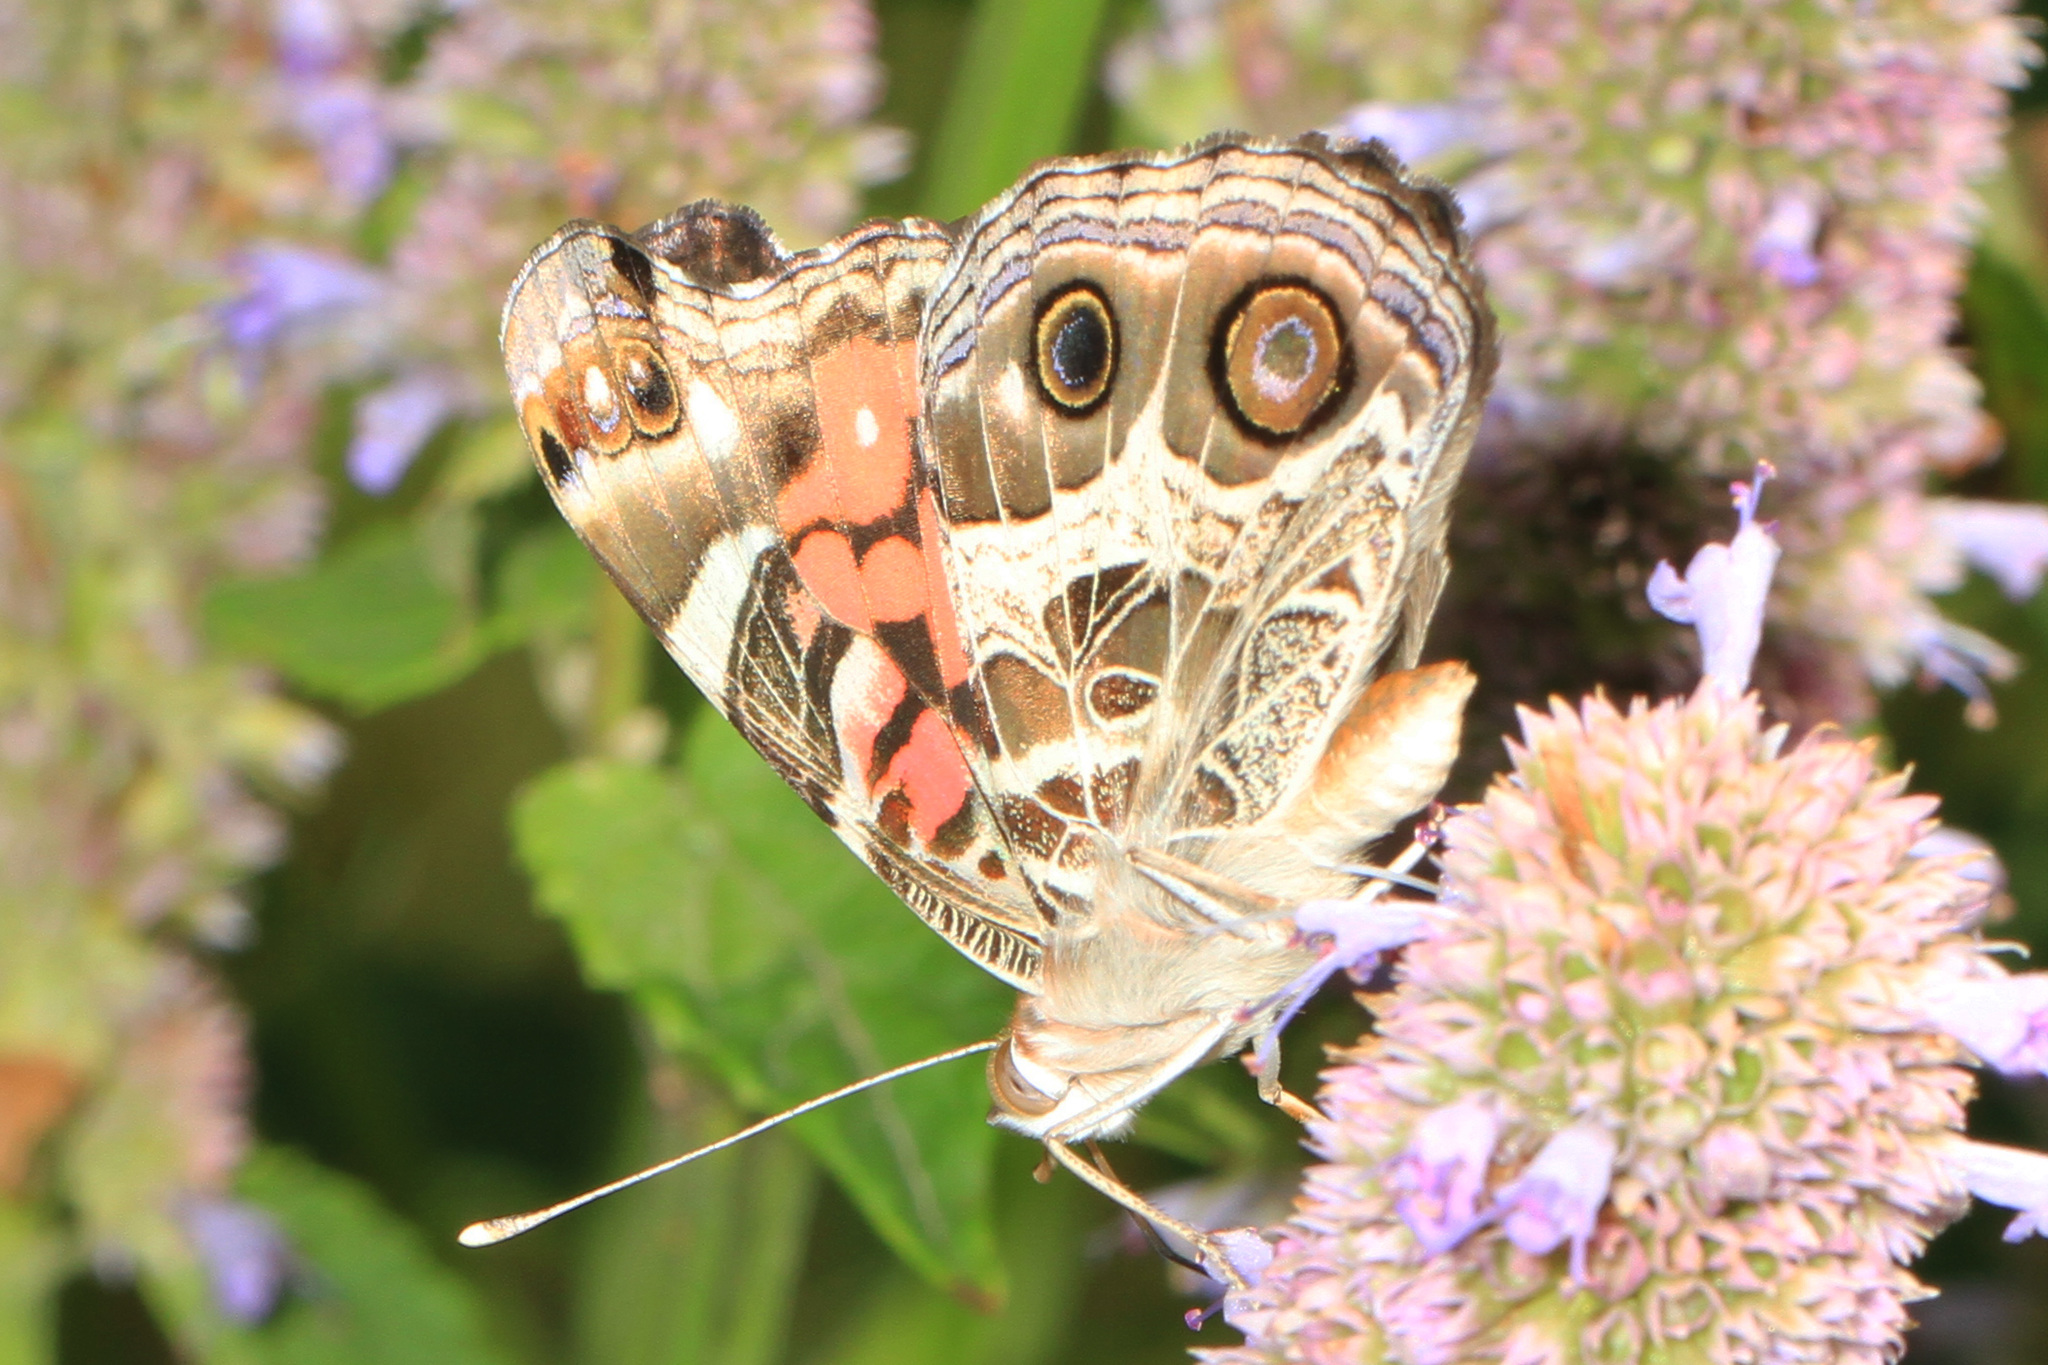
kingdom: Animalia
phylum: Arthropoda
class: Insecta
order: Lepidoptera
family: Nymphalidae
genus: Vanessa
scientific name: Vanessa virginiensis
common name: American lady
